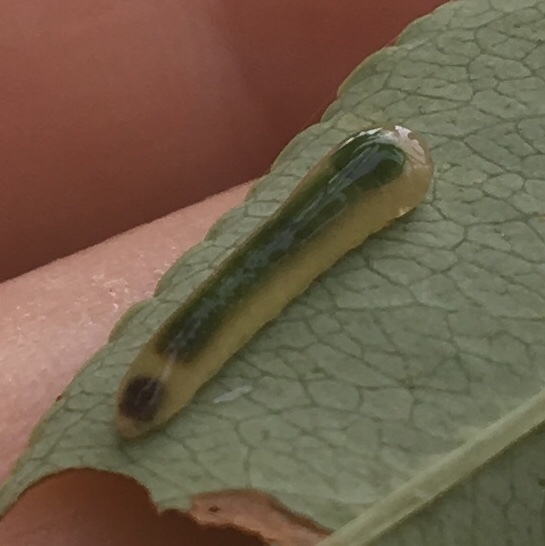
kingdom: Animalia
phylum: Arthropoda
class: Insecta
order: Hymenoptera
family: Tenthredinidae
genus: Caliroa
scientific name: Caliroa
